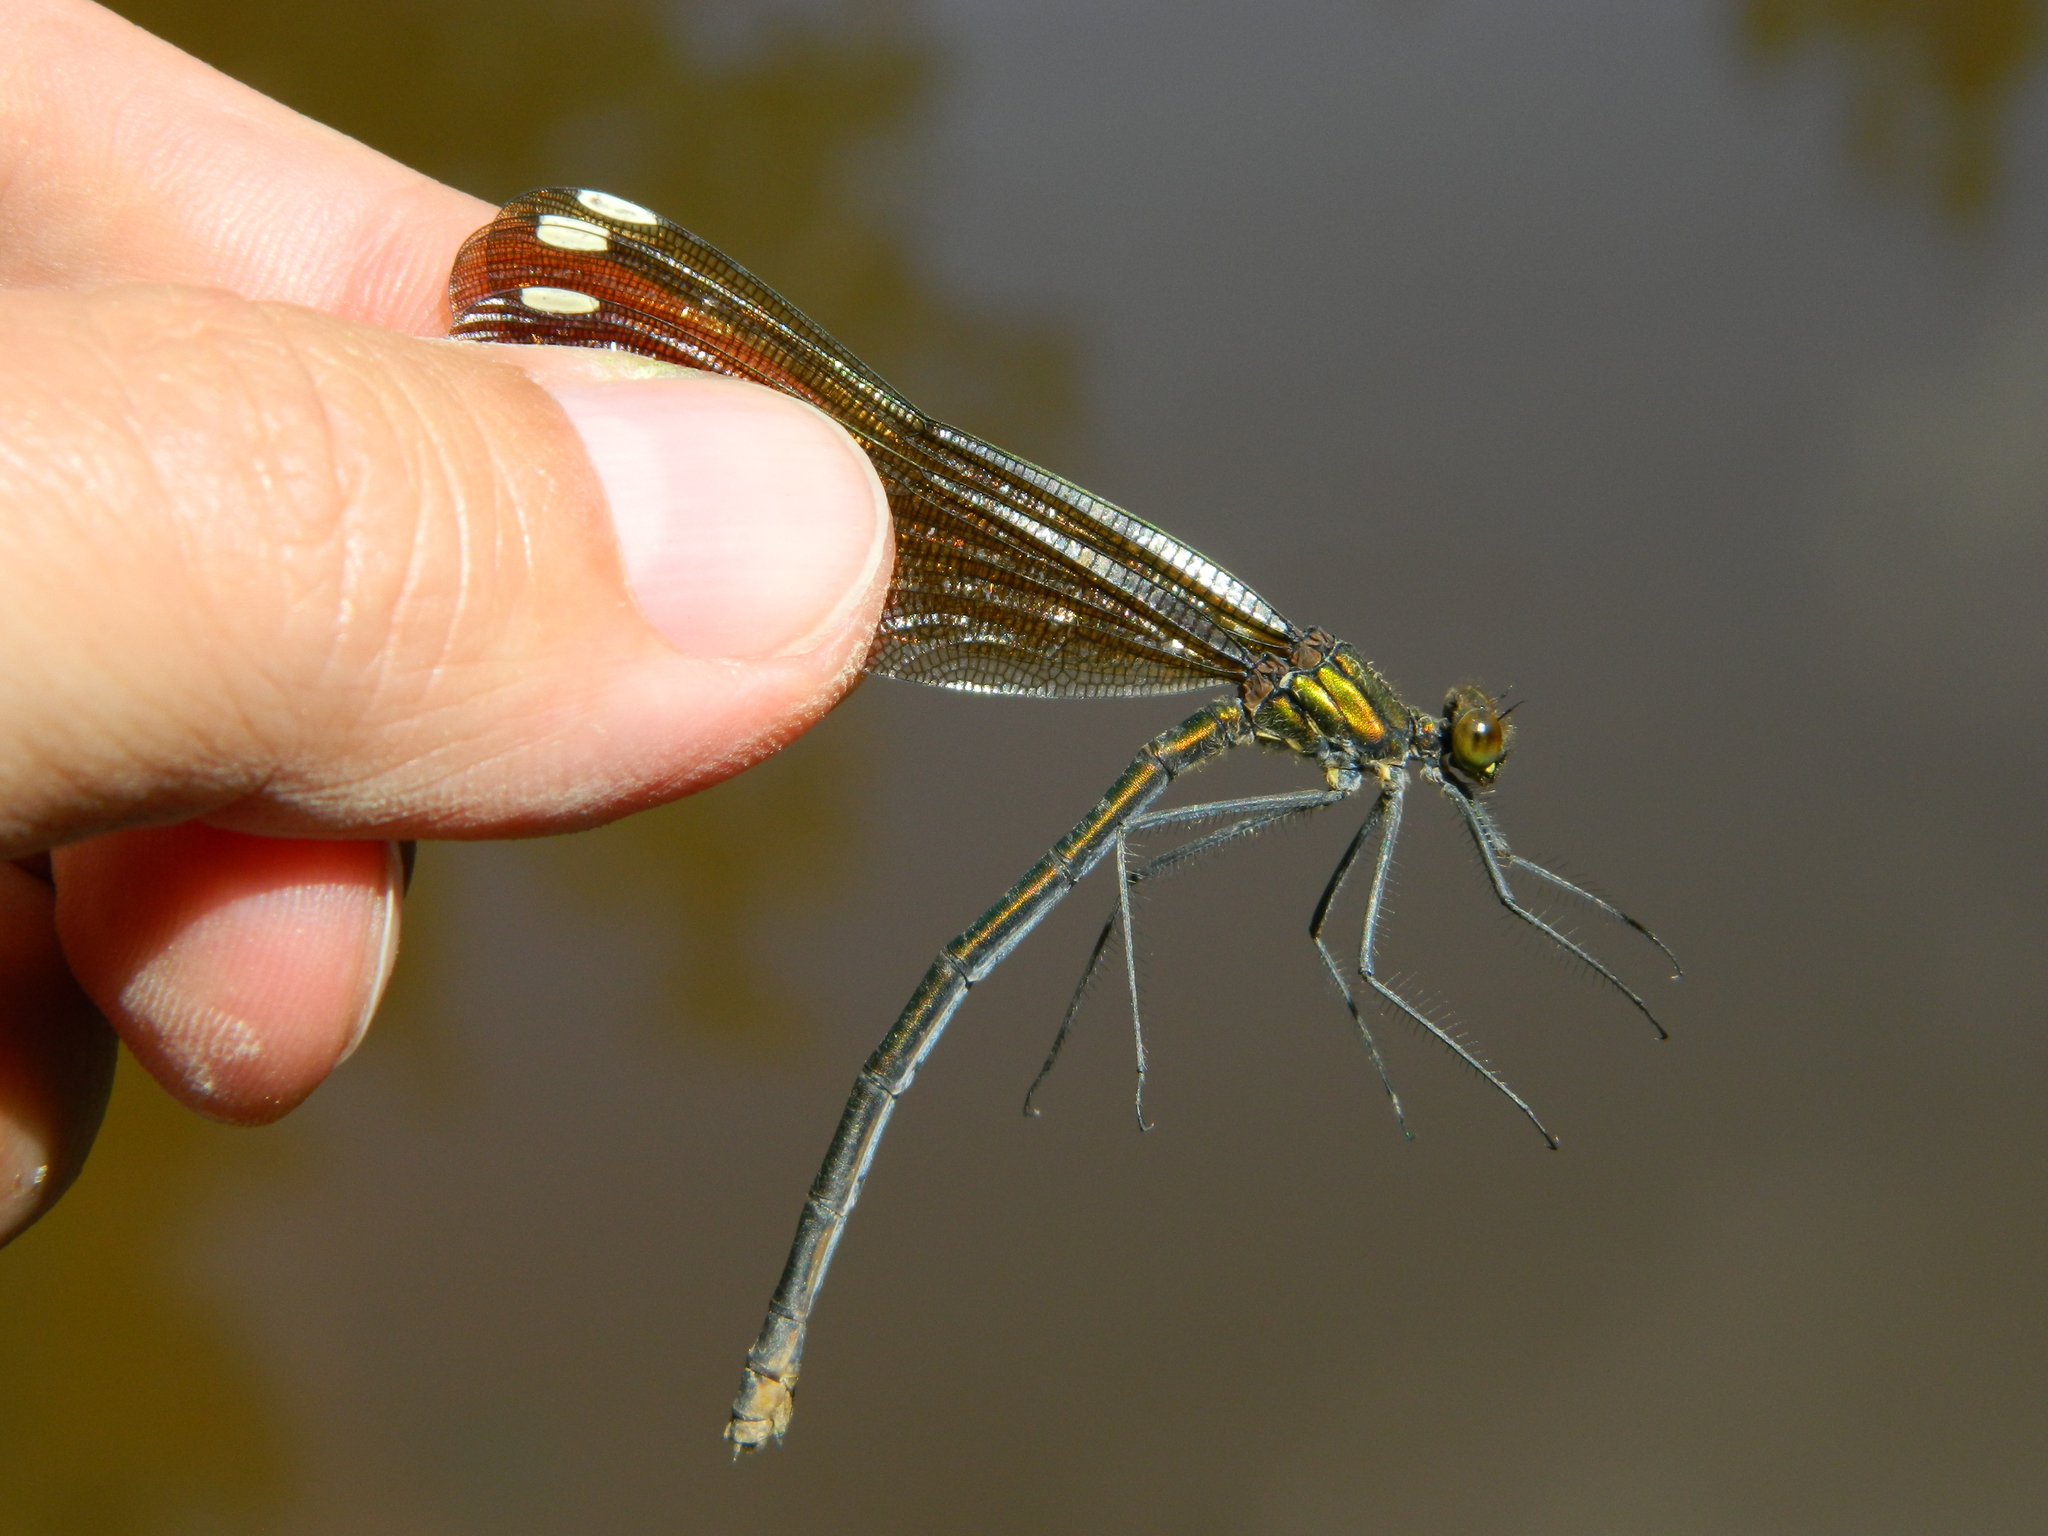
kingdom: Animalia
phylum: Arthropoda
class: Insecta
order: Odonata
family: Calopterygidae
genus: Calopteryx
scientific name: Calopteryx aequabilis
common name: River jewelwing
